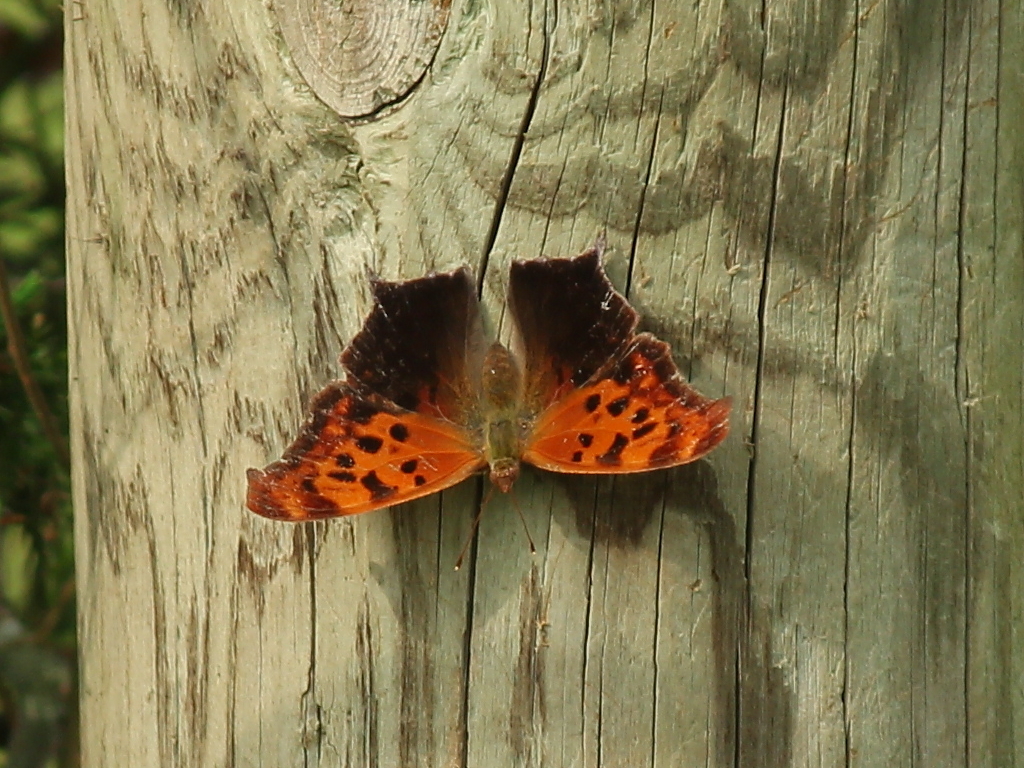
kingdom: Animalia
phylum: Arthropoda
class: Insecta
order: Lepidoptera
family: Nymphalidae
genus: Polygonia
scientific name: Polygonia interrogationis
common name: Question mark
